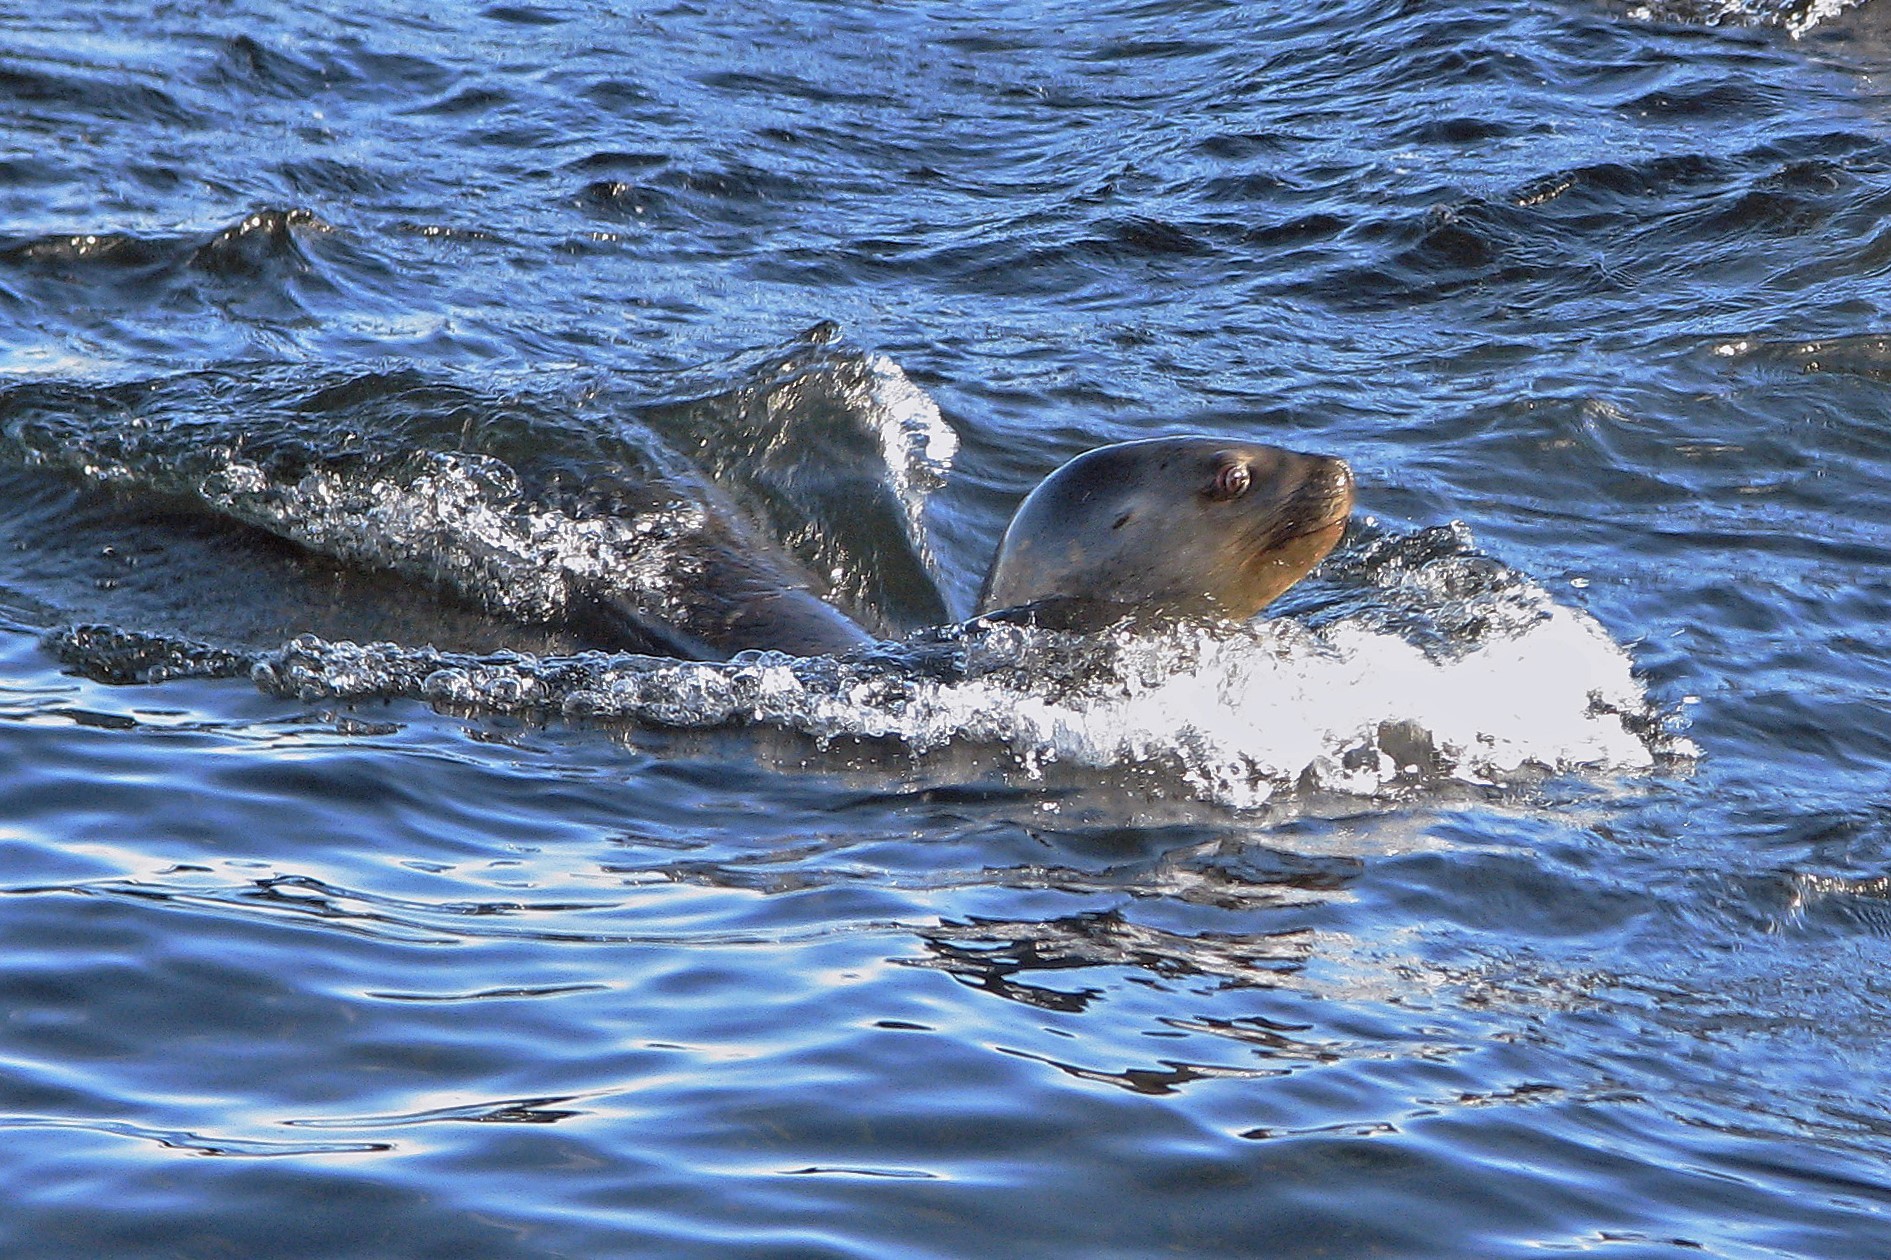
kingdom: Animalia
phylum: Chordata
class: Mammalia
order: Carnivora
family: Otariidae
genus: Otaria
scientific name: Otaria byronia
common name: South american sea lion
